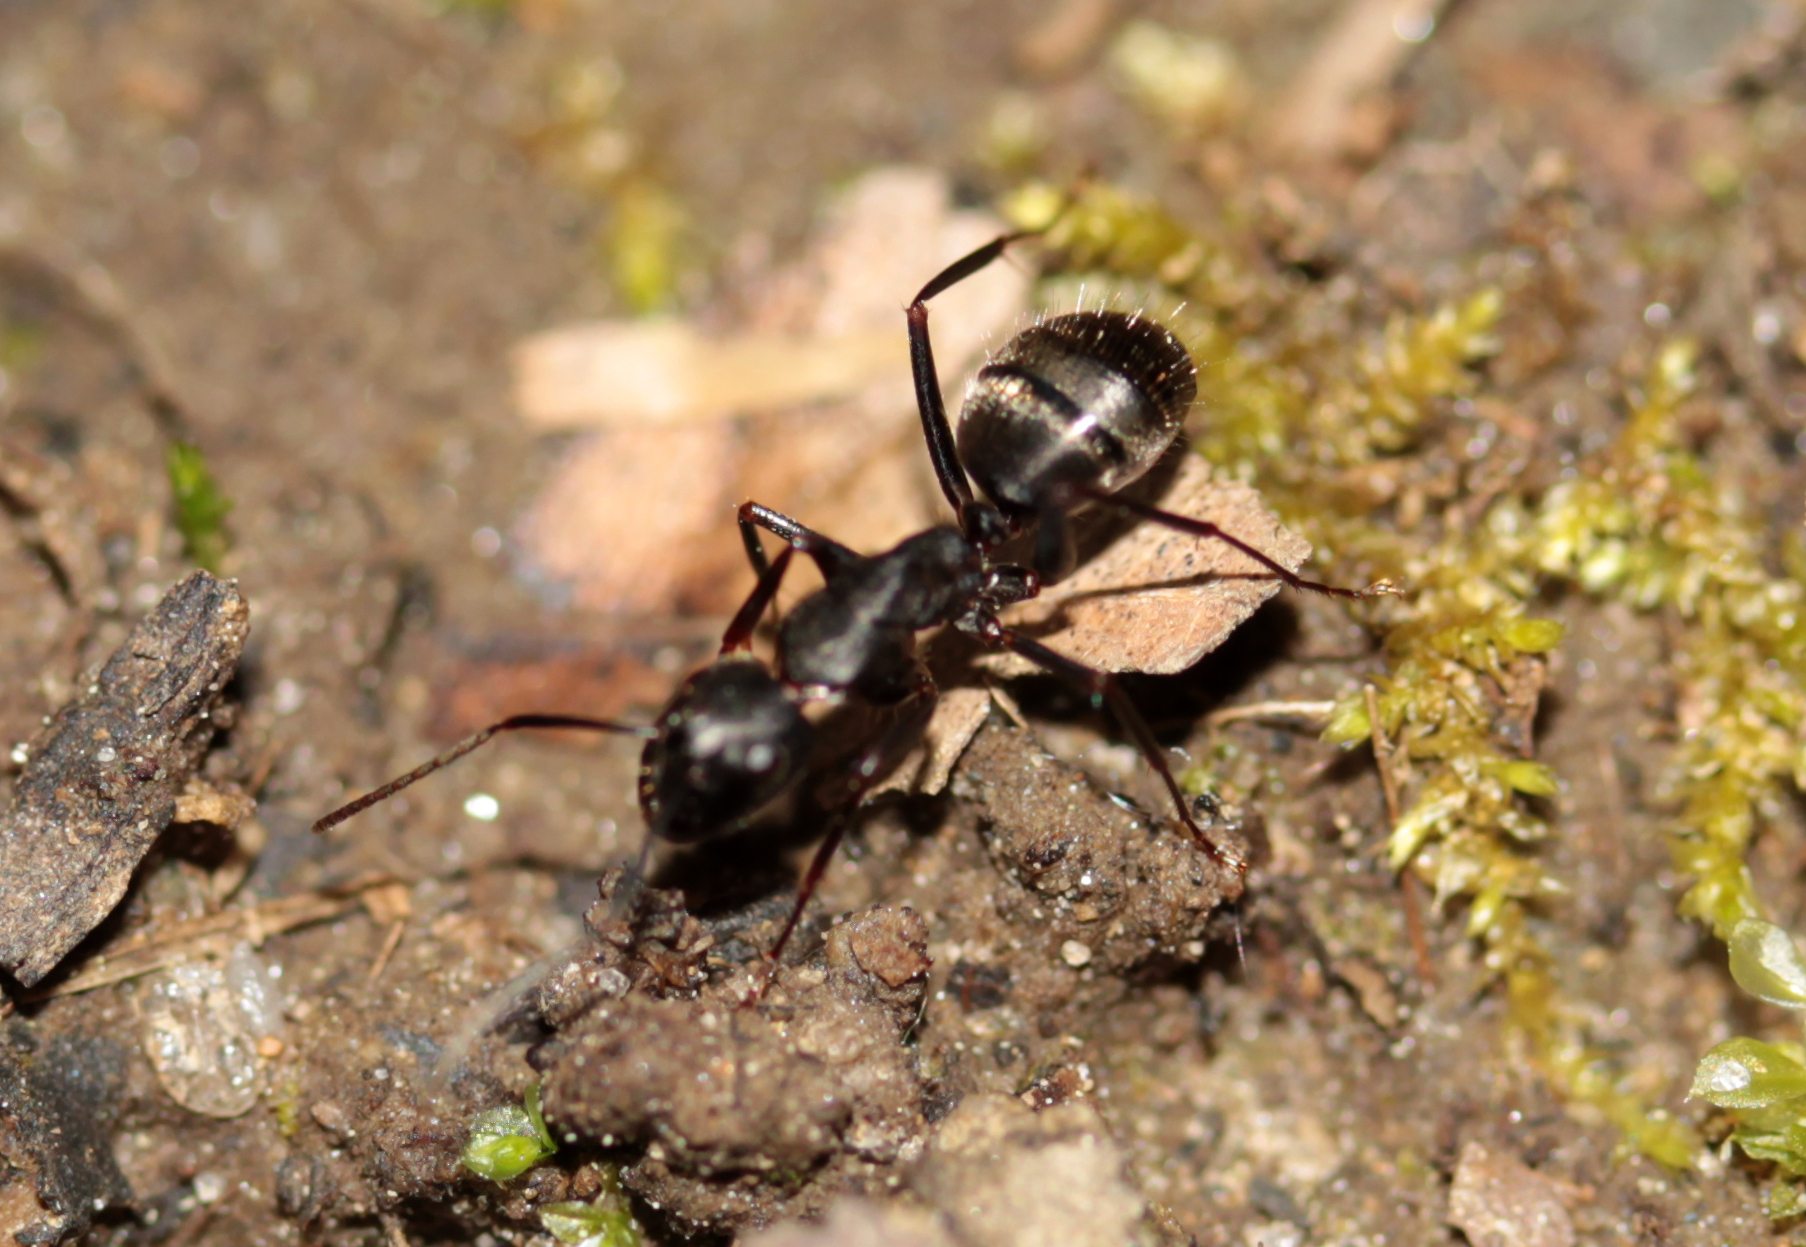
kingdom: Animalia
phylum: Arthropoda
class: Insecta
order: Hymenoptera
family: Formicidae
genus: Camponotus
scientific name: Camponotus pennsylvanicus
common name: Black carpenter ant
